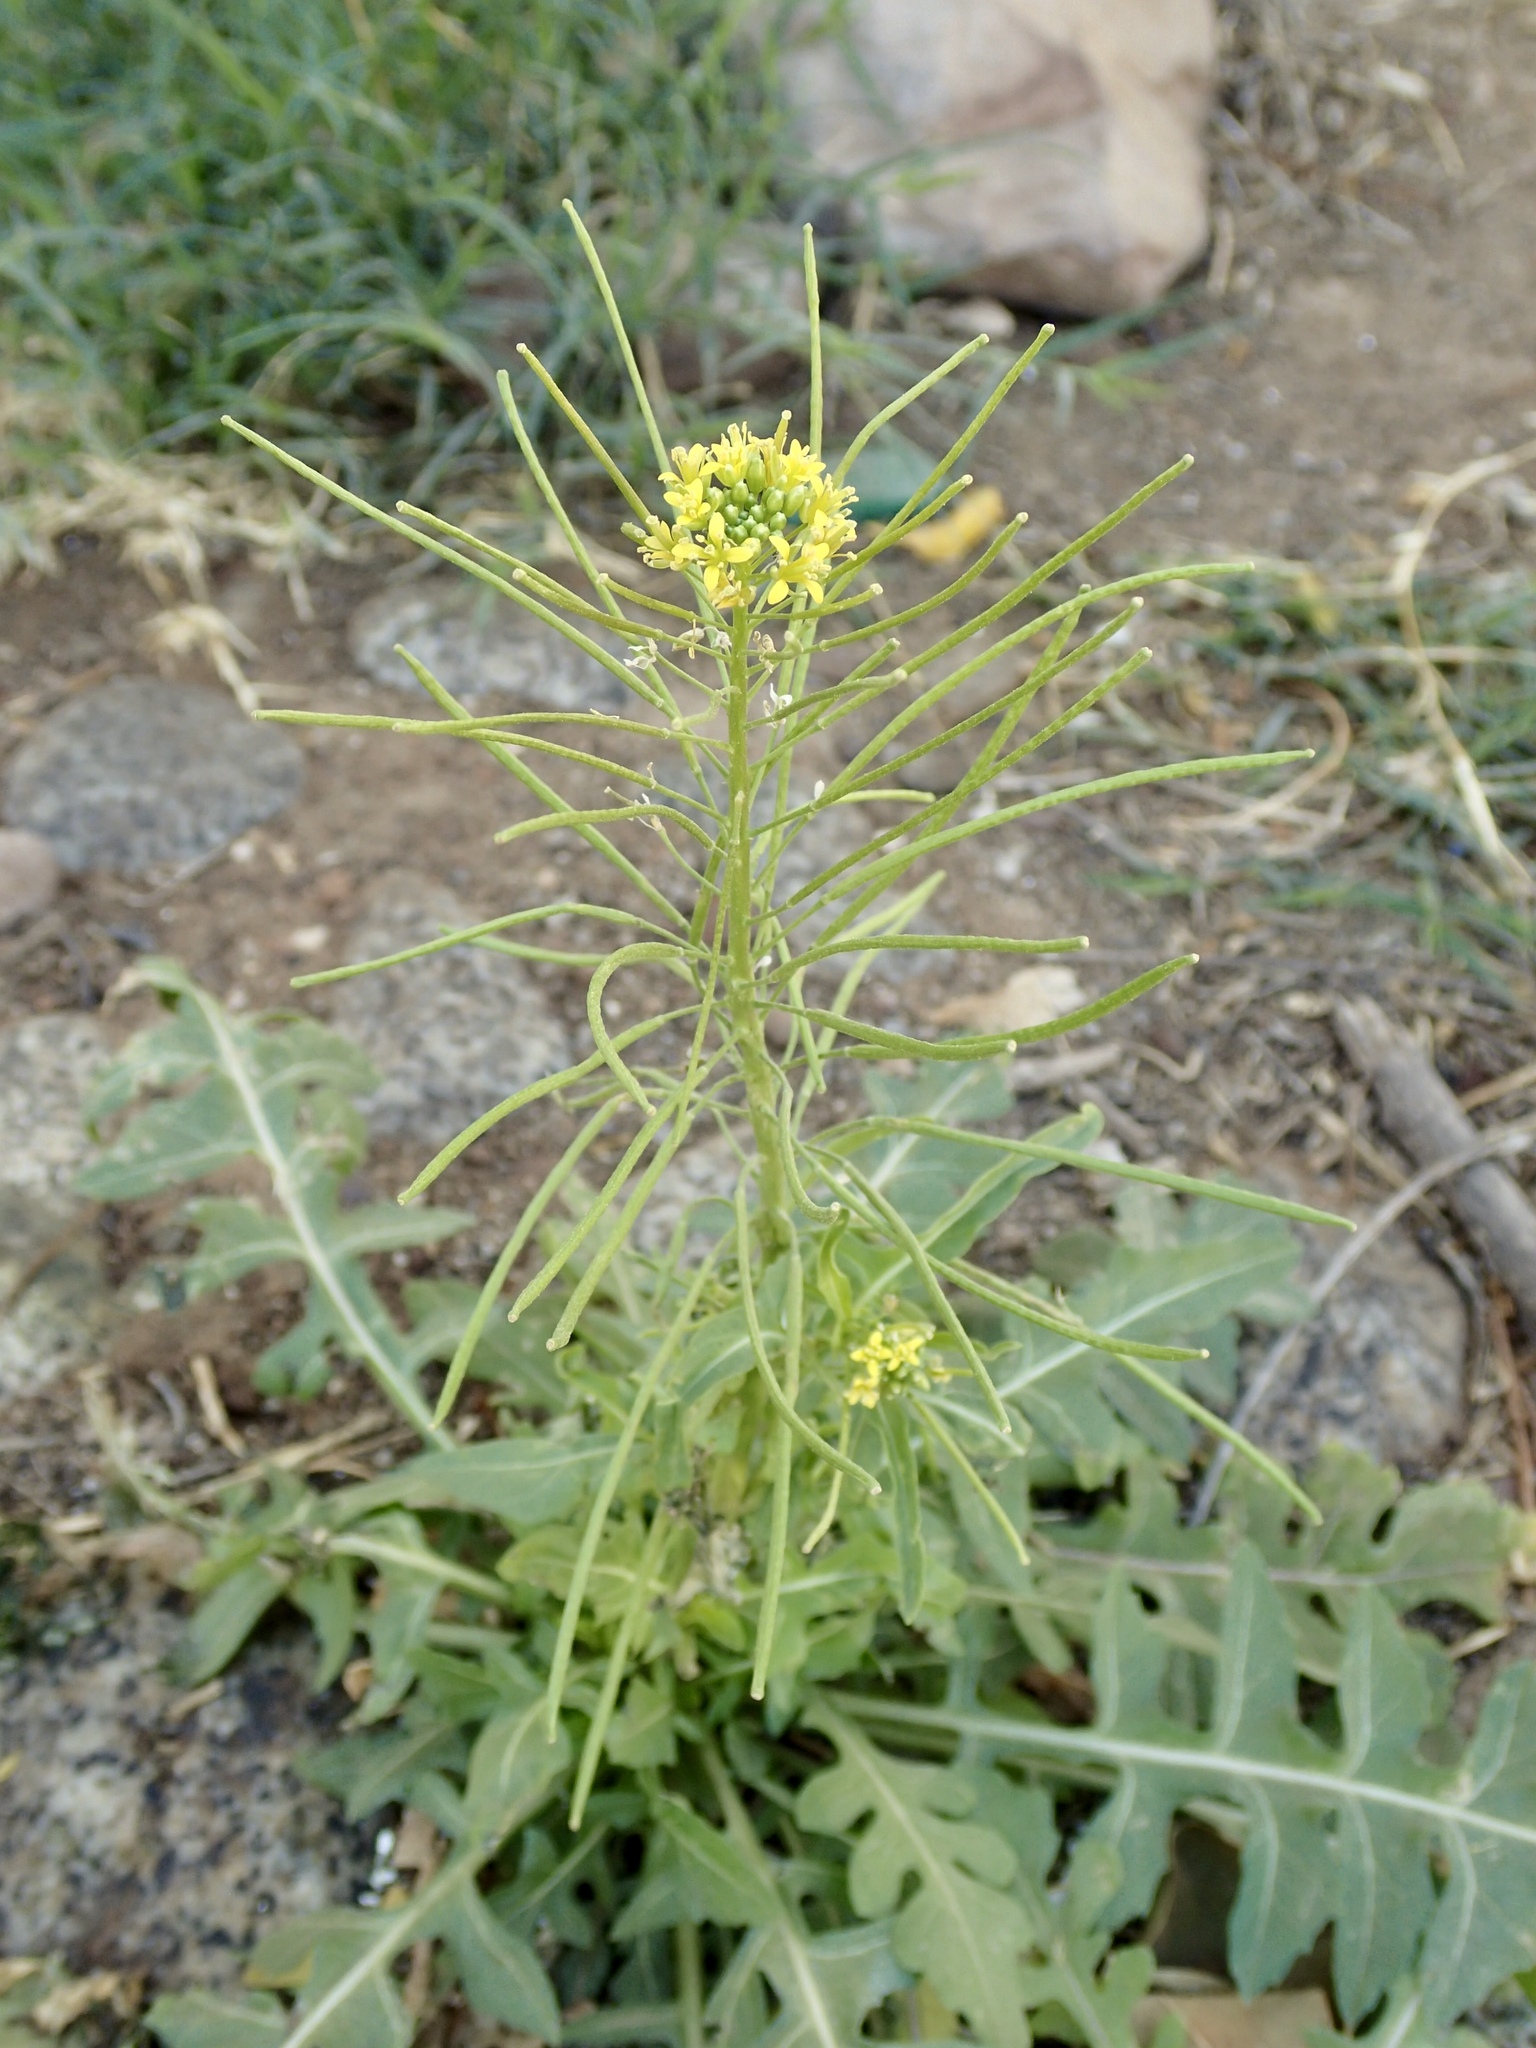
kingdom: Plantae
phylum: Tracheophyta
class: Magnoliopsida
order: Brassicales
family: Brassicaceae
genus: Sisymbrium
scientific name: Sisymbrium irio
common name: London rocket
